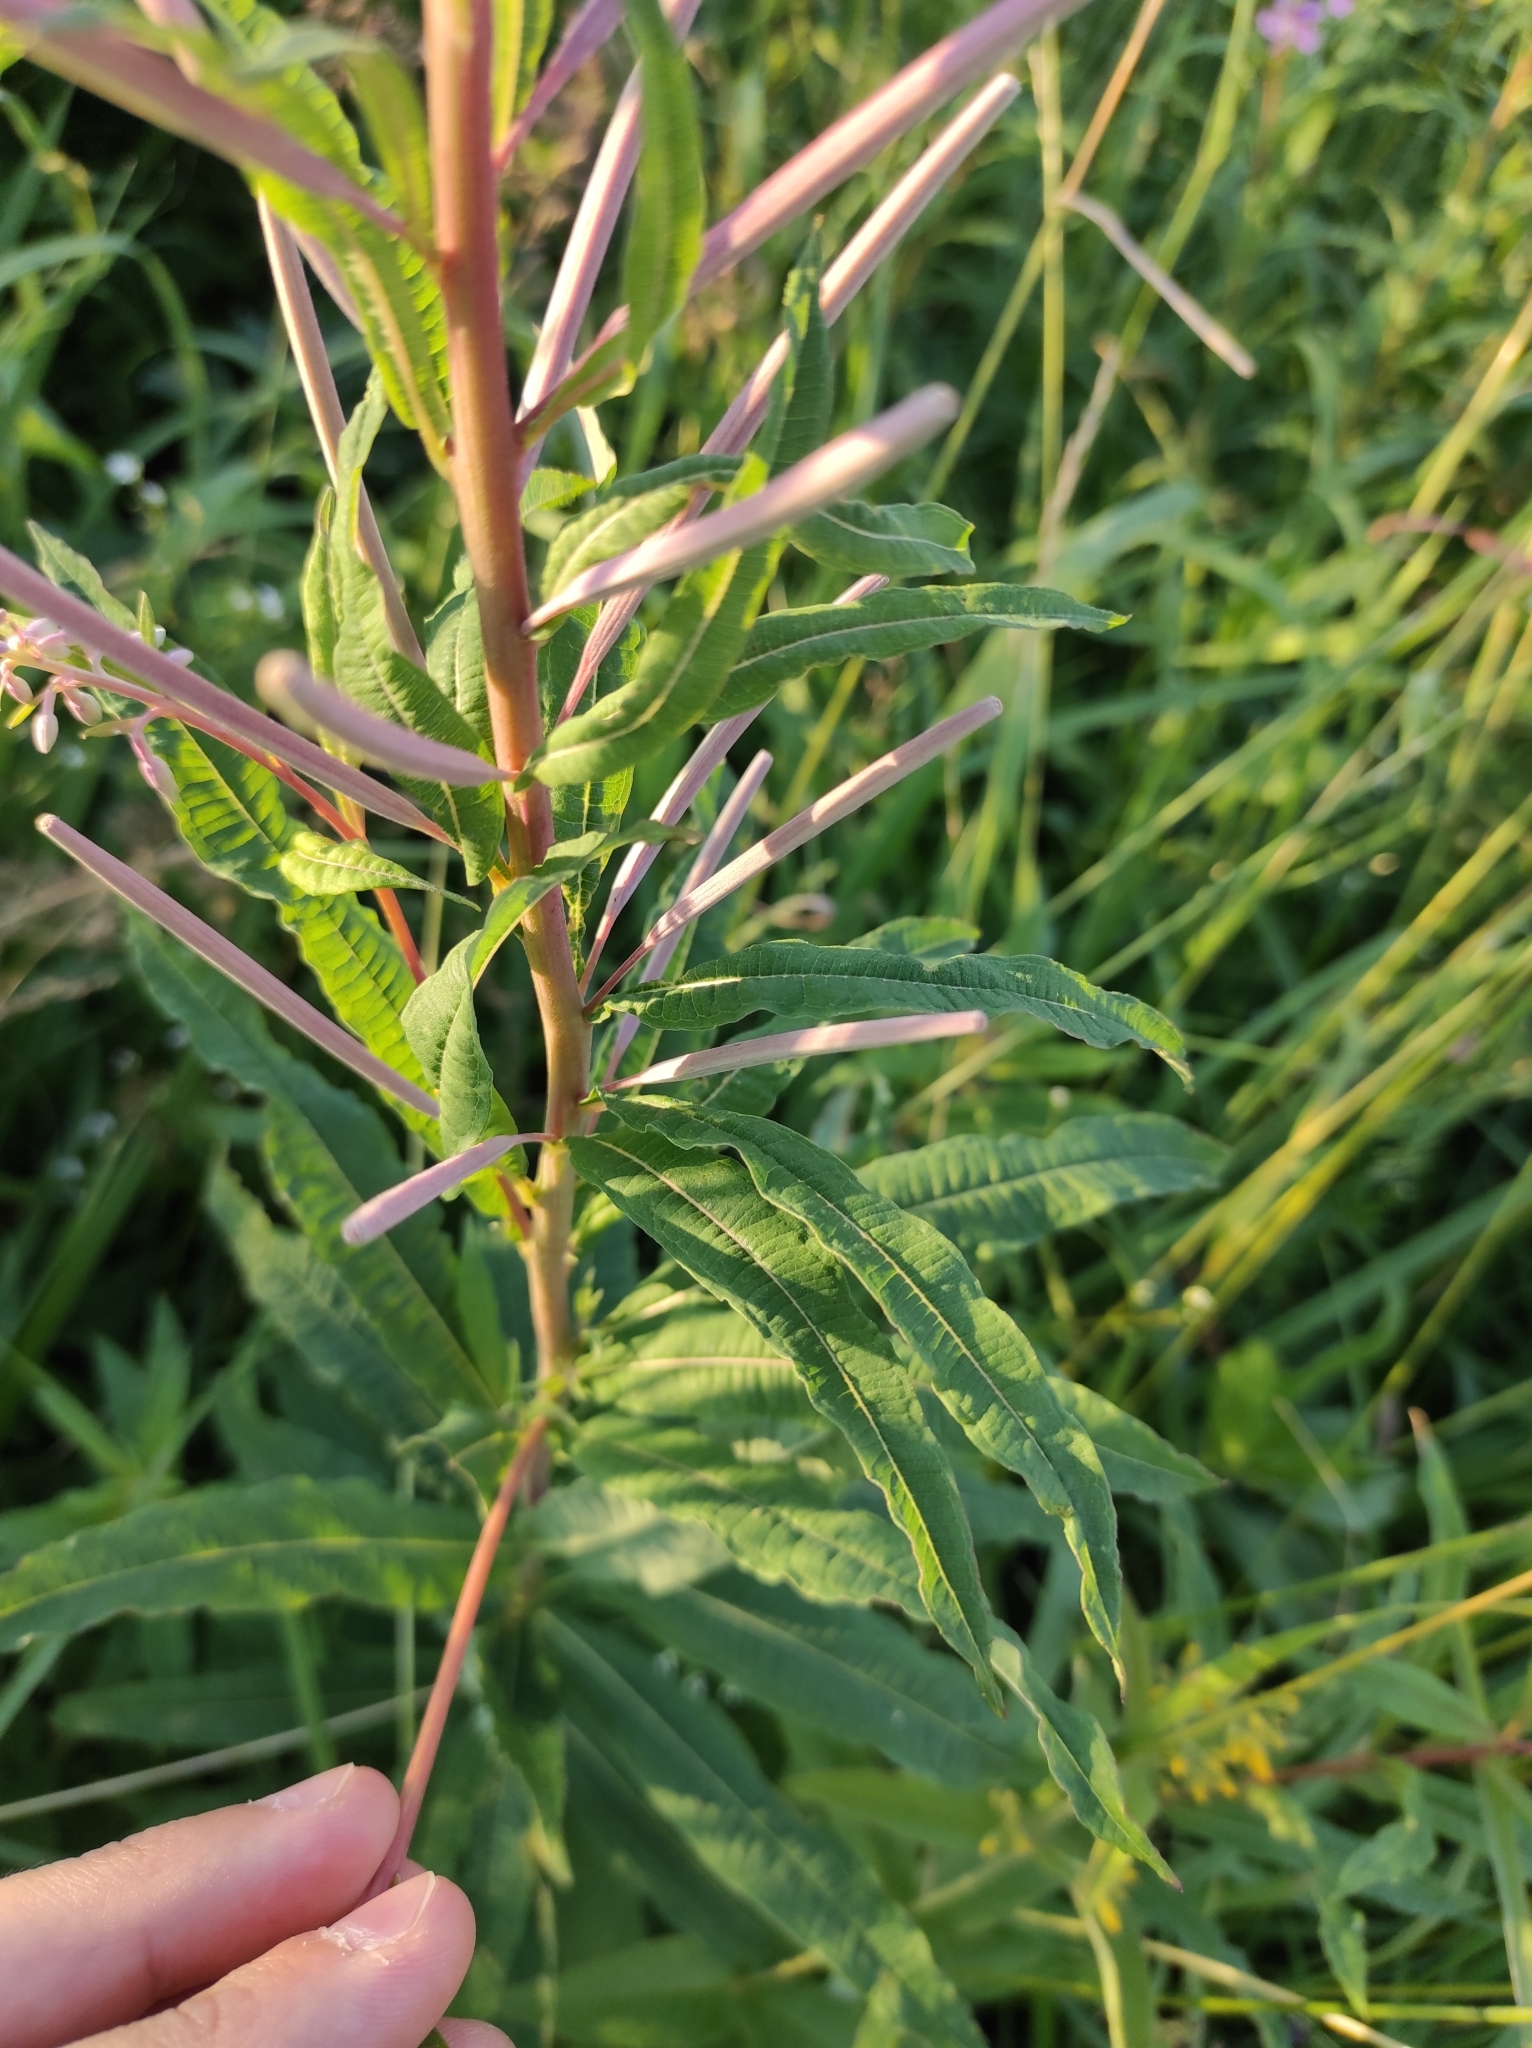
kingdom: Plantae
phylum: Tracheophyta
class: Magnoliopsida
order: Myrtales
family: Onagraceae
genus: Chamaenerion
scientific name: Chamaenerion angustifolium
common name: Fireweed
